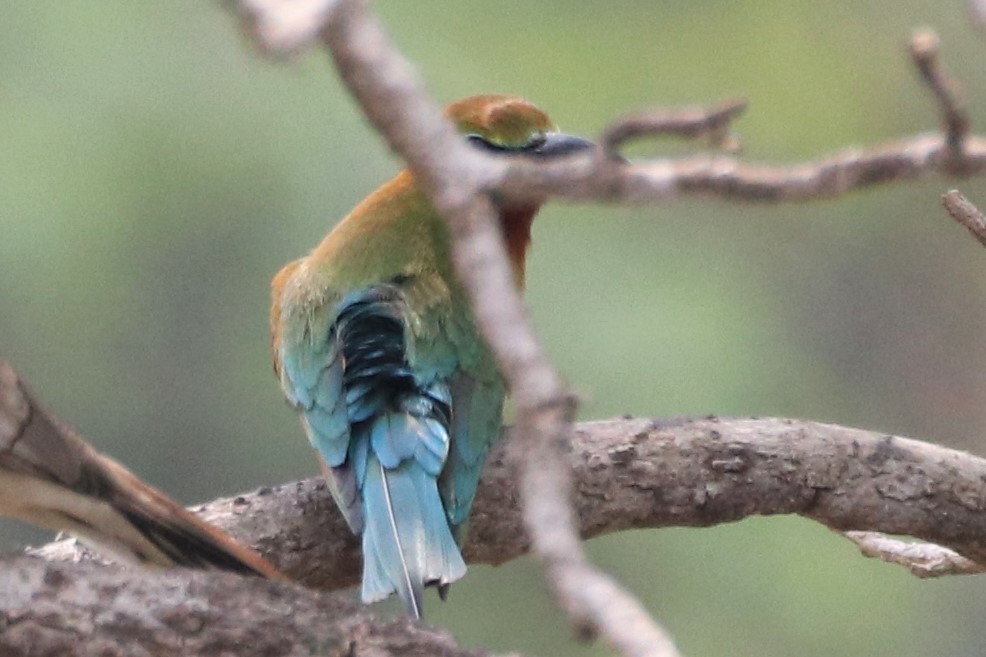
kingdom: Animalia
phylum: Chordata
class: Aves
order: Coraciiformes
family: Meropidae
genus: Merops
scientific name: Merops philippinus
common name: Blue-tailed bee-eater
